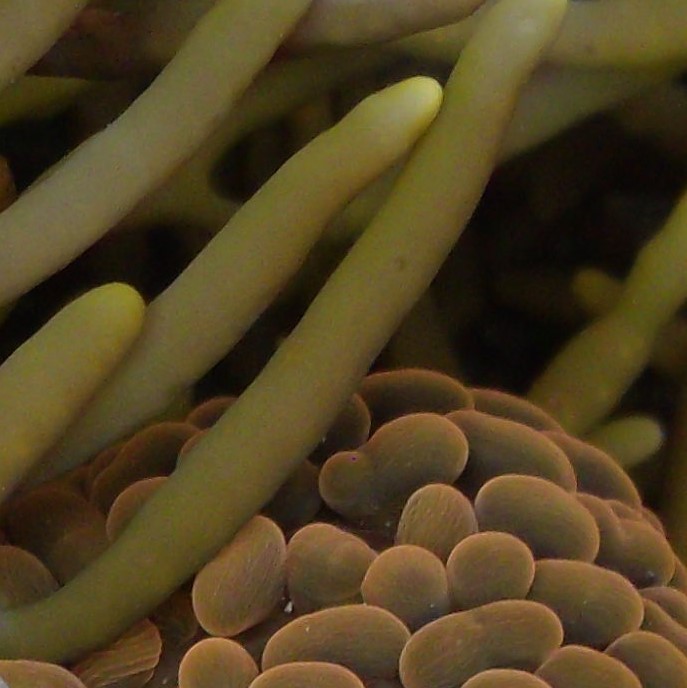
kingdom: Animalia
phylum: Cnidaria
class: Anthozoa
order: Actiniaria
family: Actiniidae
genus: Phlyctenactis
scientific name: Phlyctenactis tuberculosa
